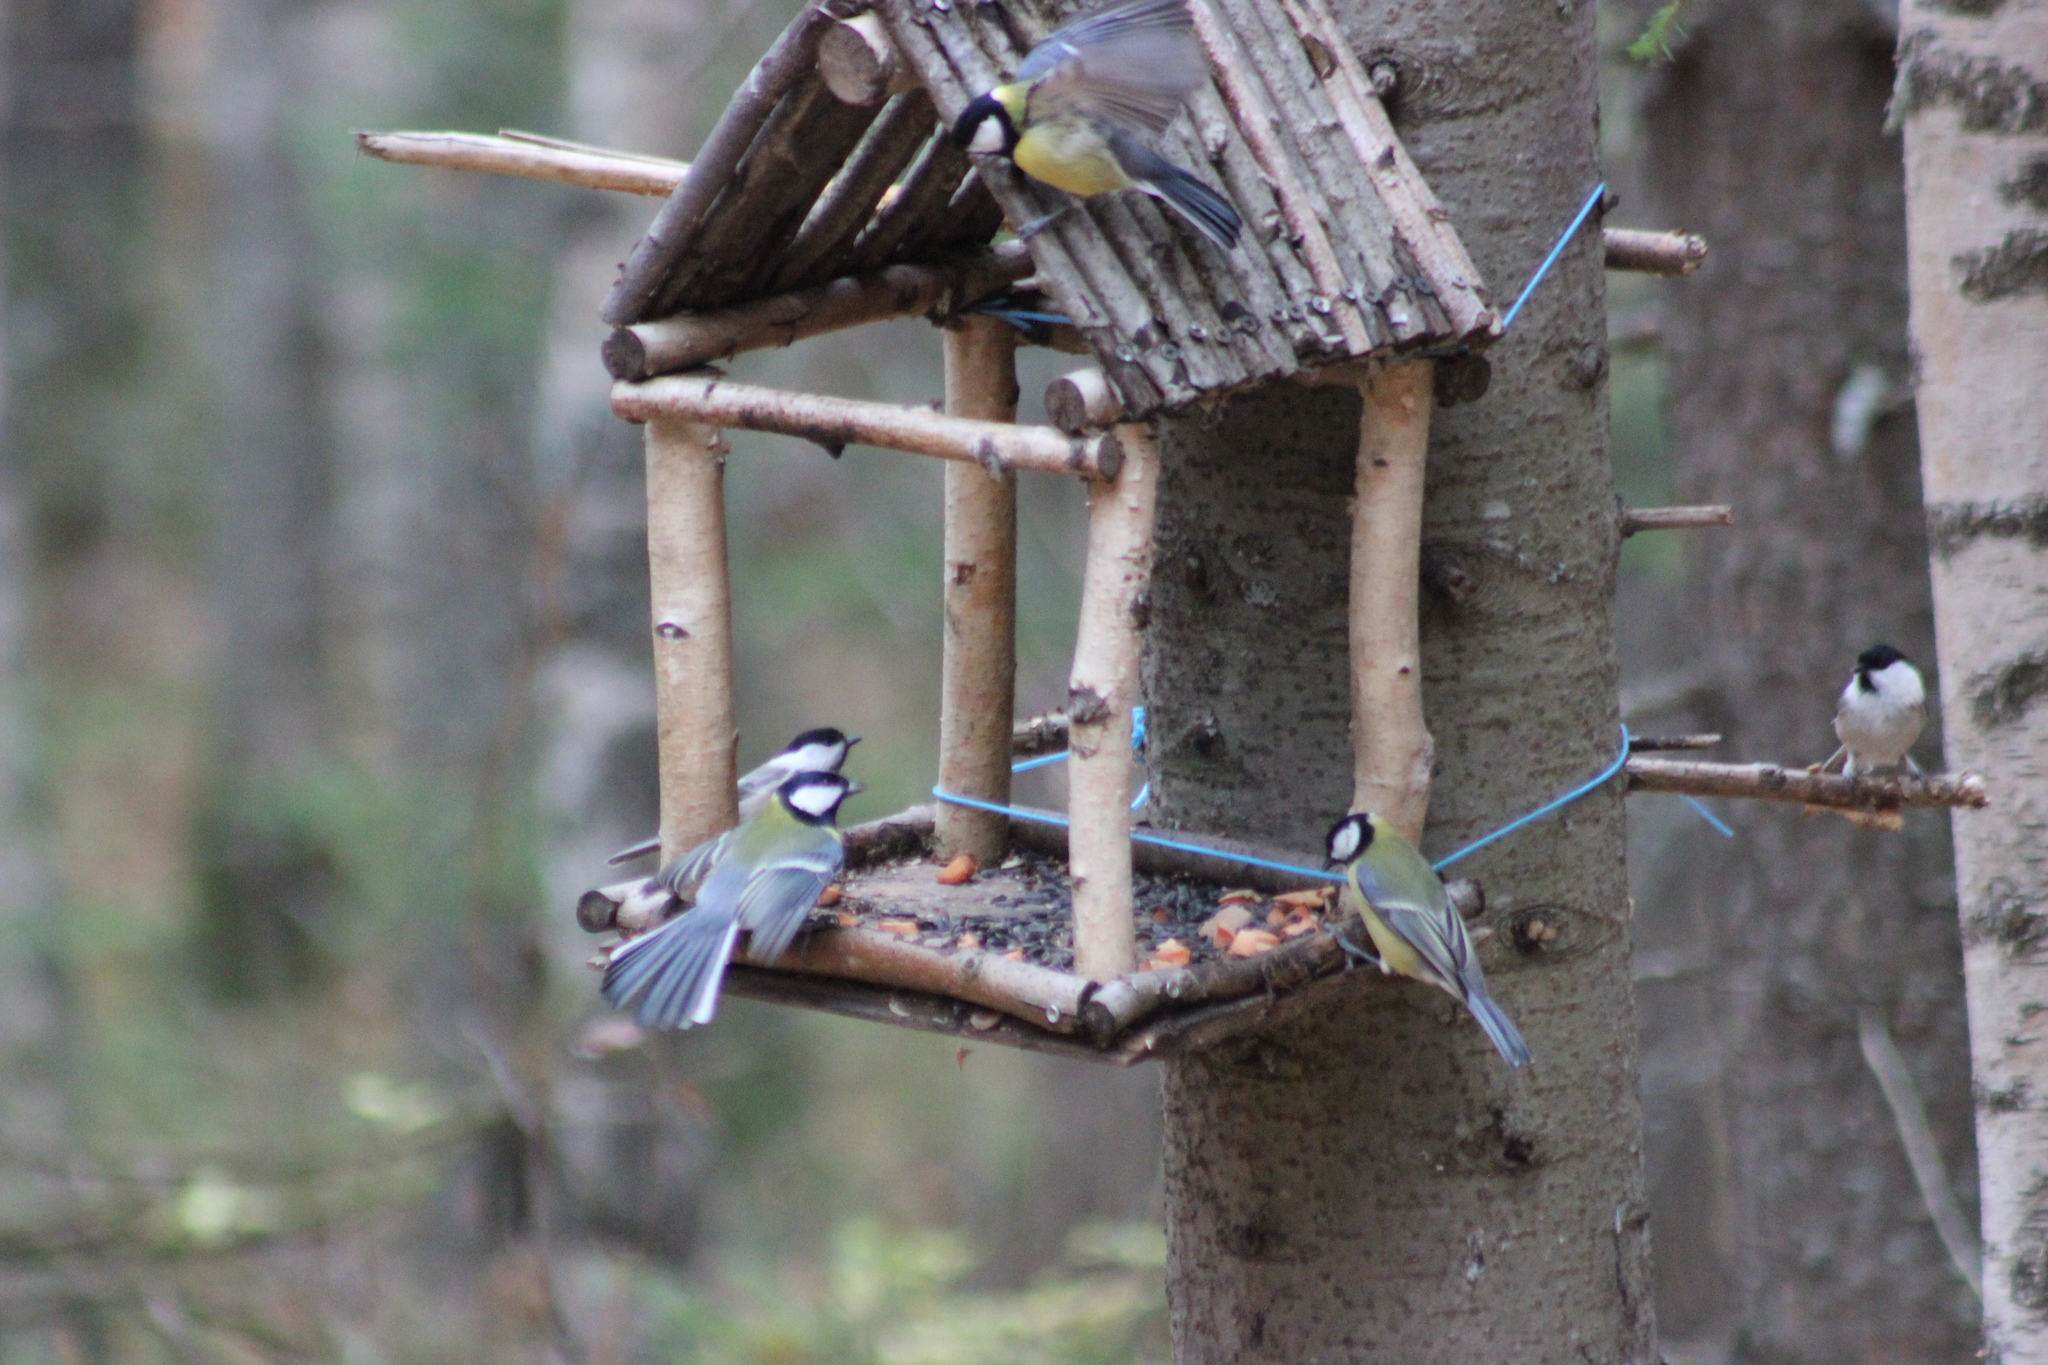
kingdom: Animalia
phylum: Chordata
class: Aves
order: Passeriformes
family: Paridae
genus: Parus
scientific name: Parus major
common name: Great tit
